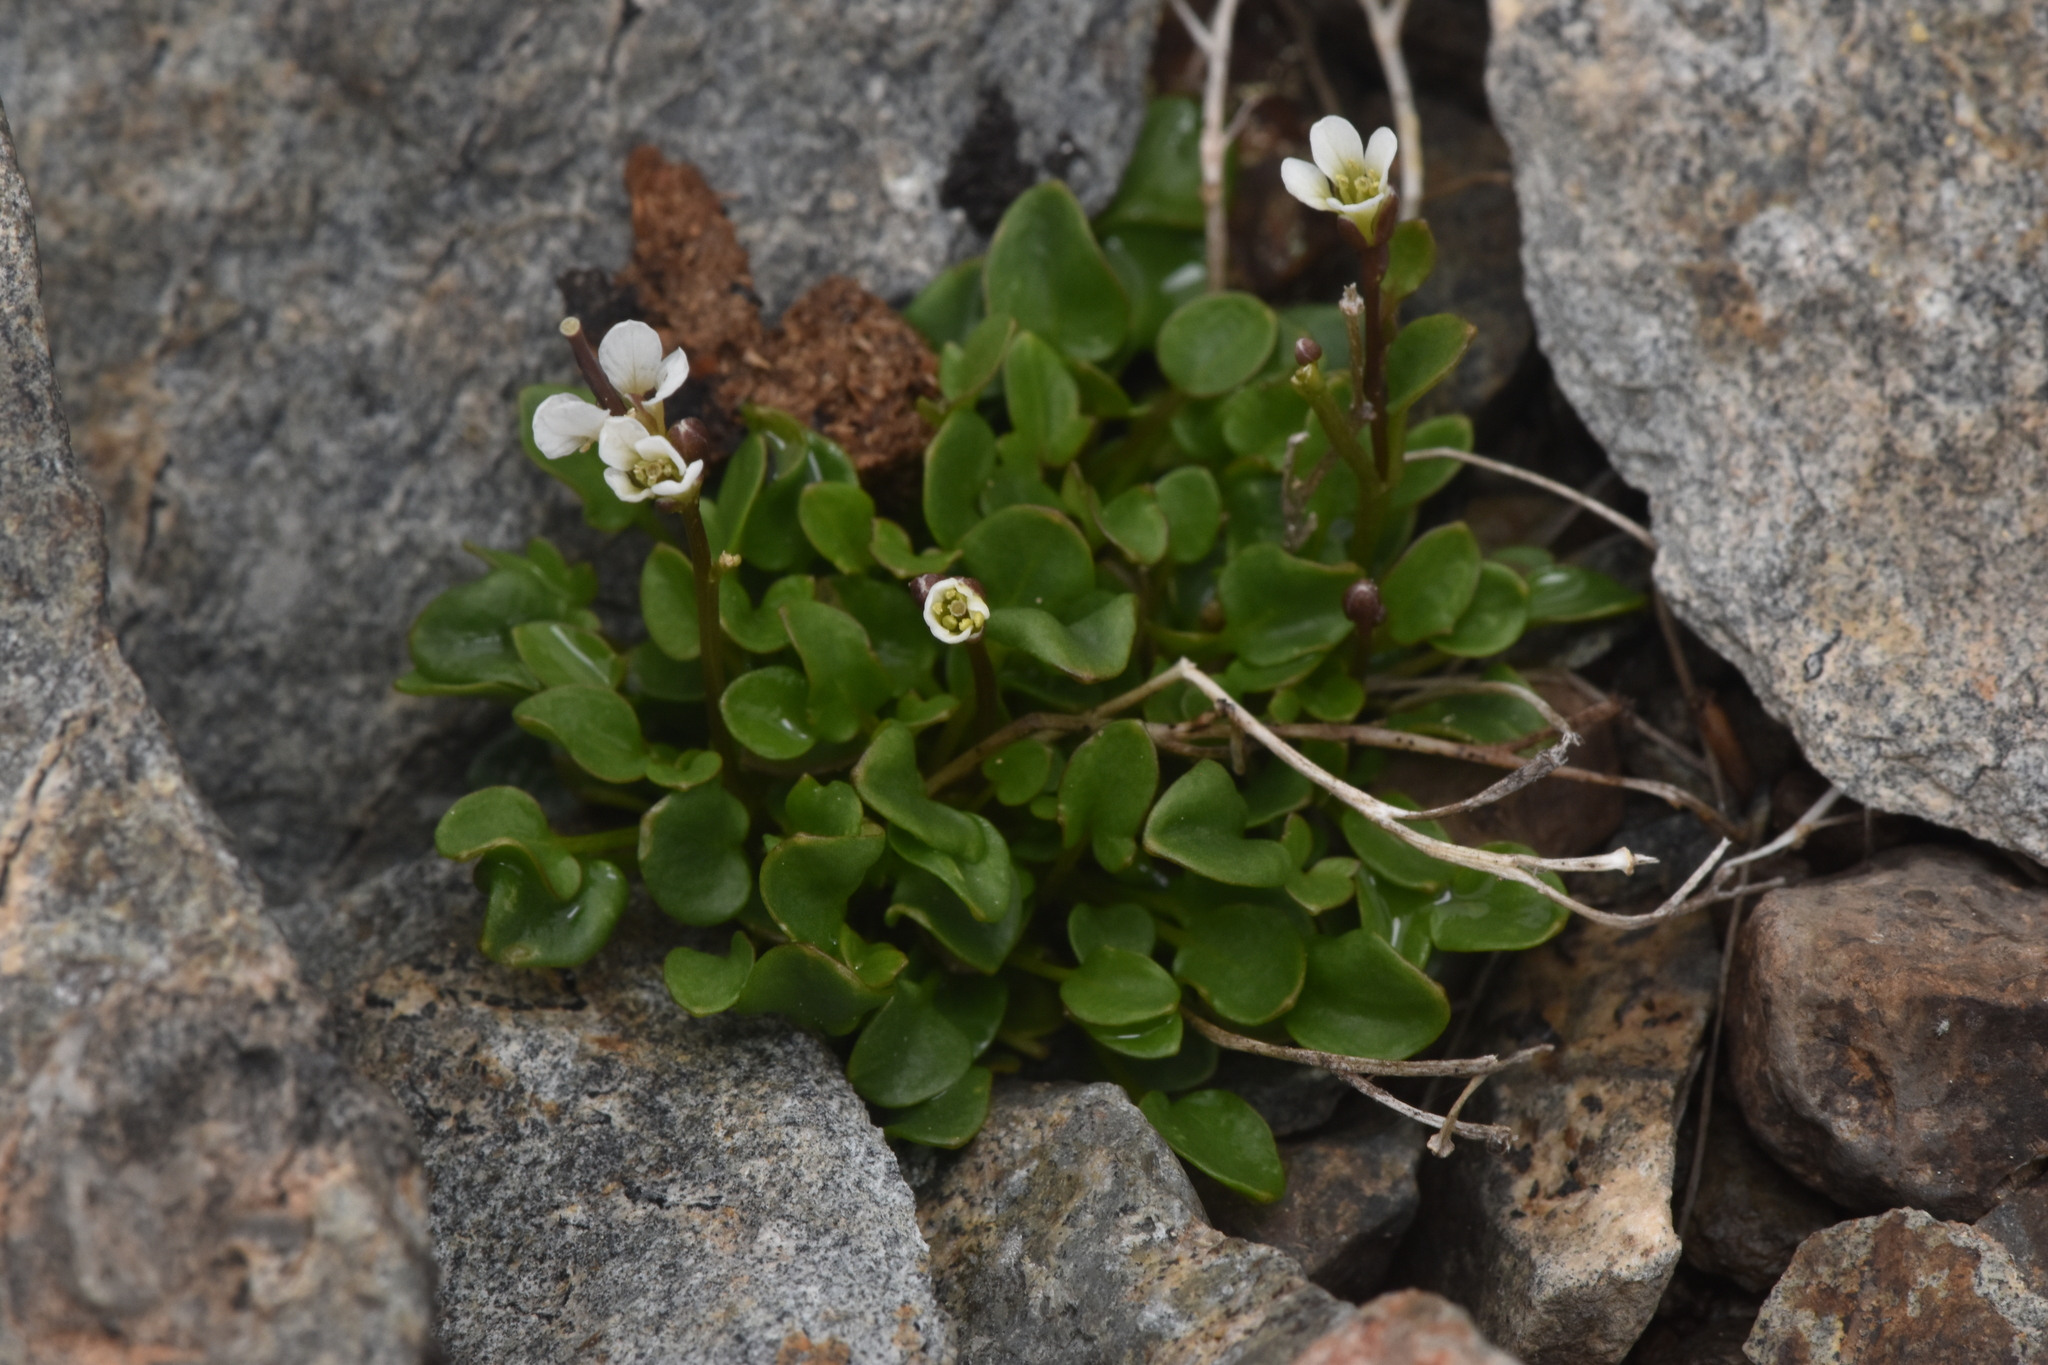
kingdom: Plantae
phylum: Tracheophyta
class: Magnoliopsida
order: Brassicales
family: Brassicaceae
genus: Cardamine
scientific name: Cardamine bellidifolia
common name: Alpine bittercress
